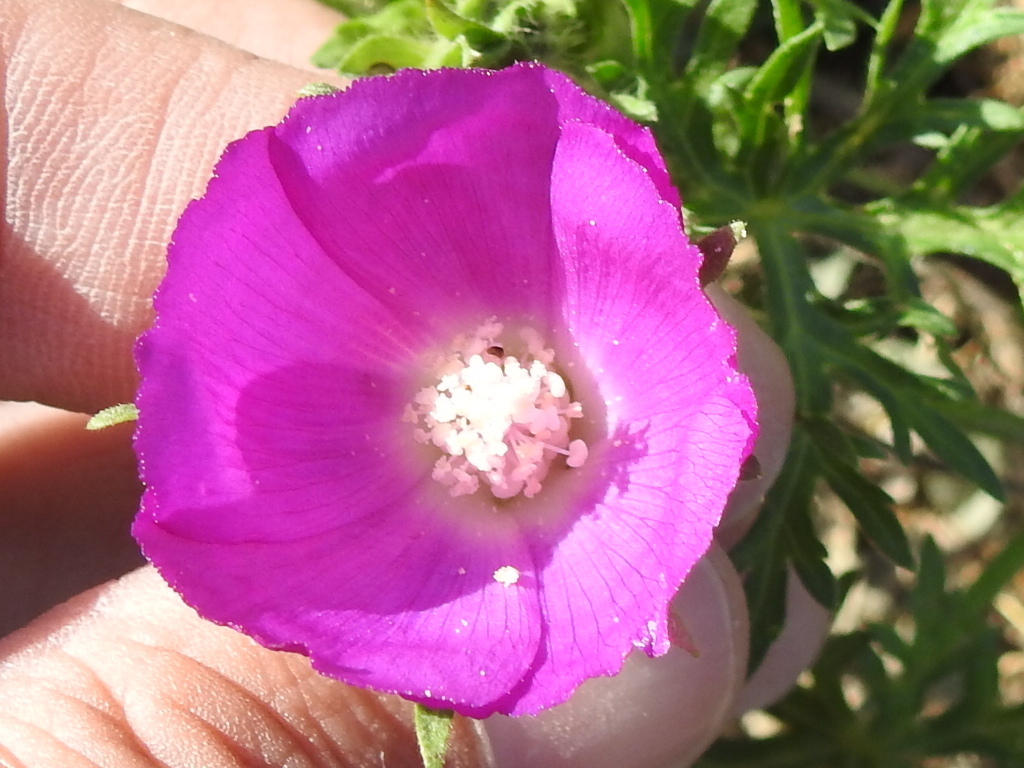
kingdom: Plantae
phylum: Tracheophyta
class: Magnoliopsida
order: Malvales
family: Malvaceae
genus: Callirhoe
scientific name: Callirhoe involucrata
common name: Purple poppy-mallow
